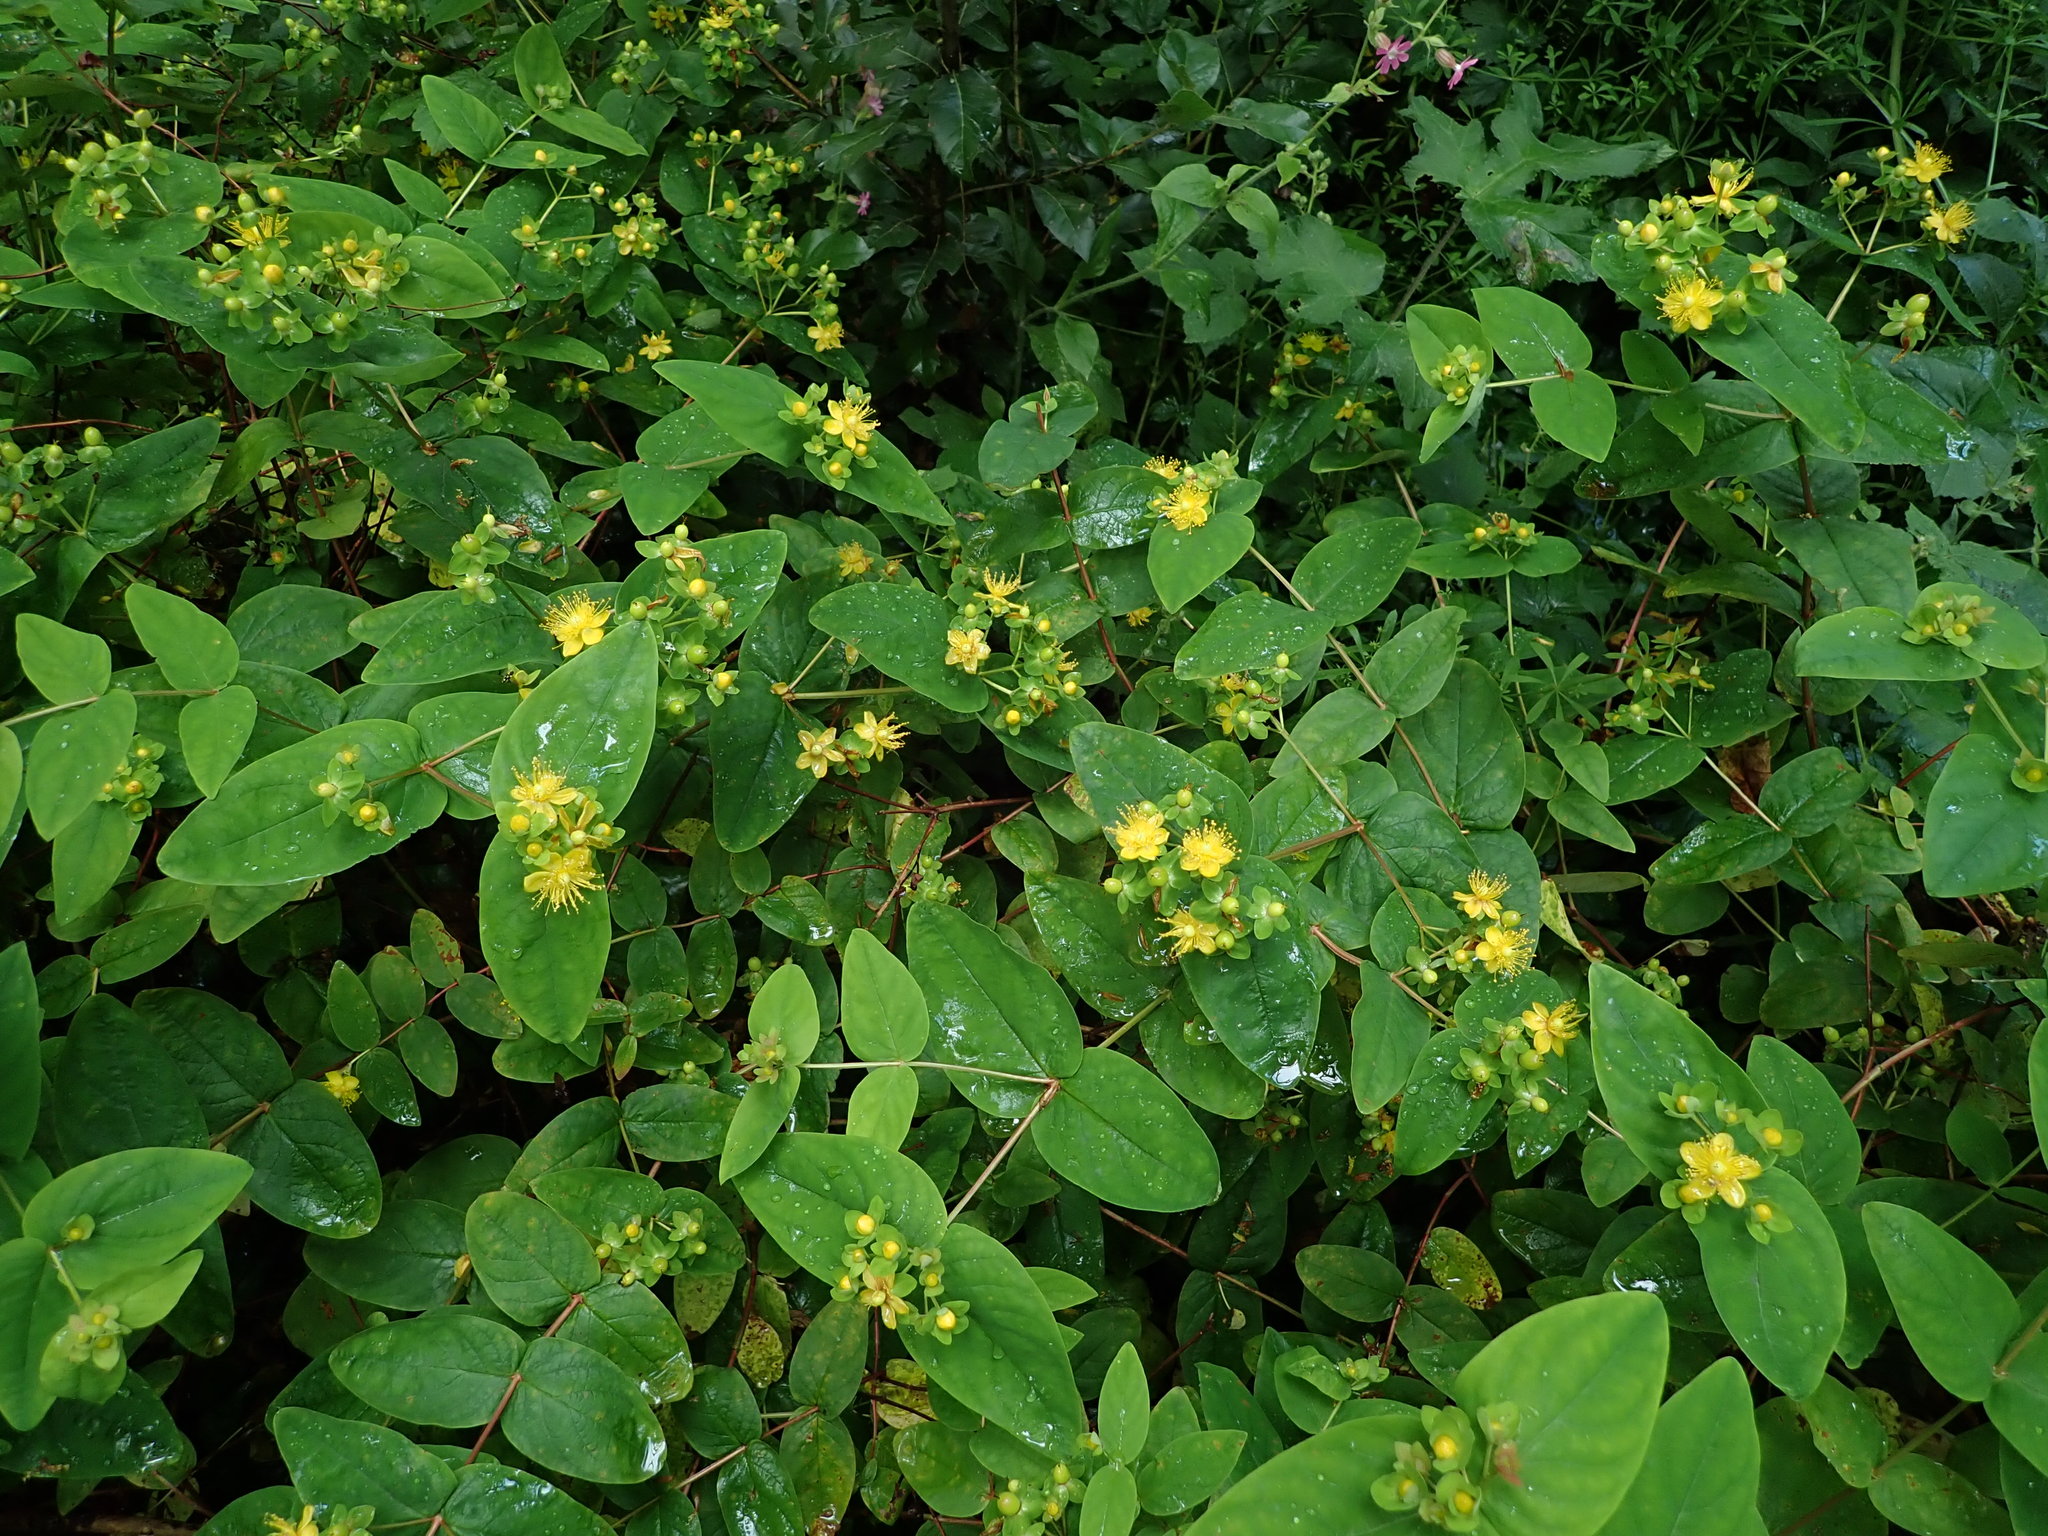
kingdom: Plantae
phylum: Tracheophyta
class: Magnoliopsida
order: Malpighiales
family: Hypericaceae
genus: Hypericum
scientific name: Hypericum androsaemum
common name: Sweet-amber
